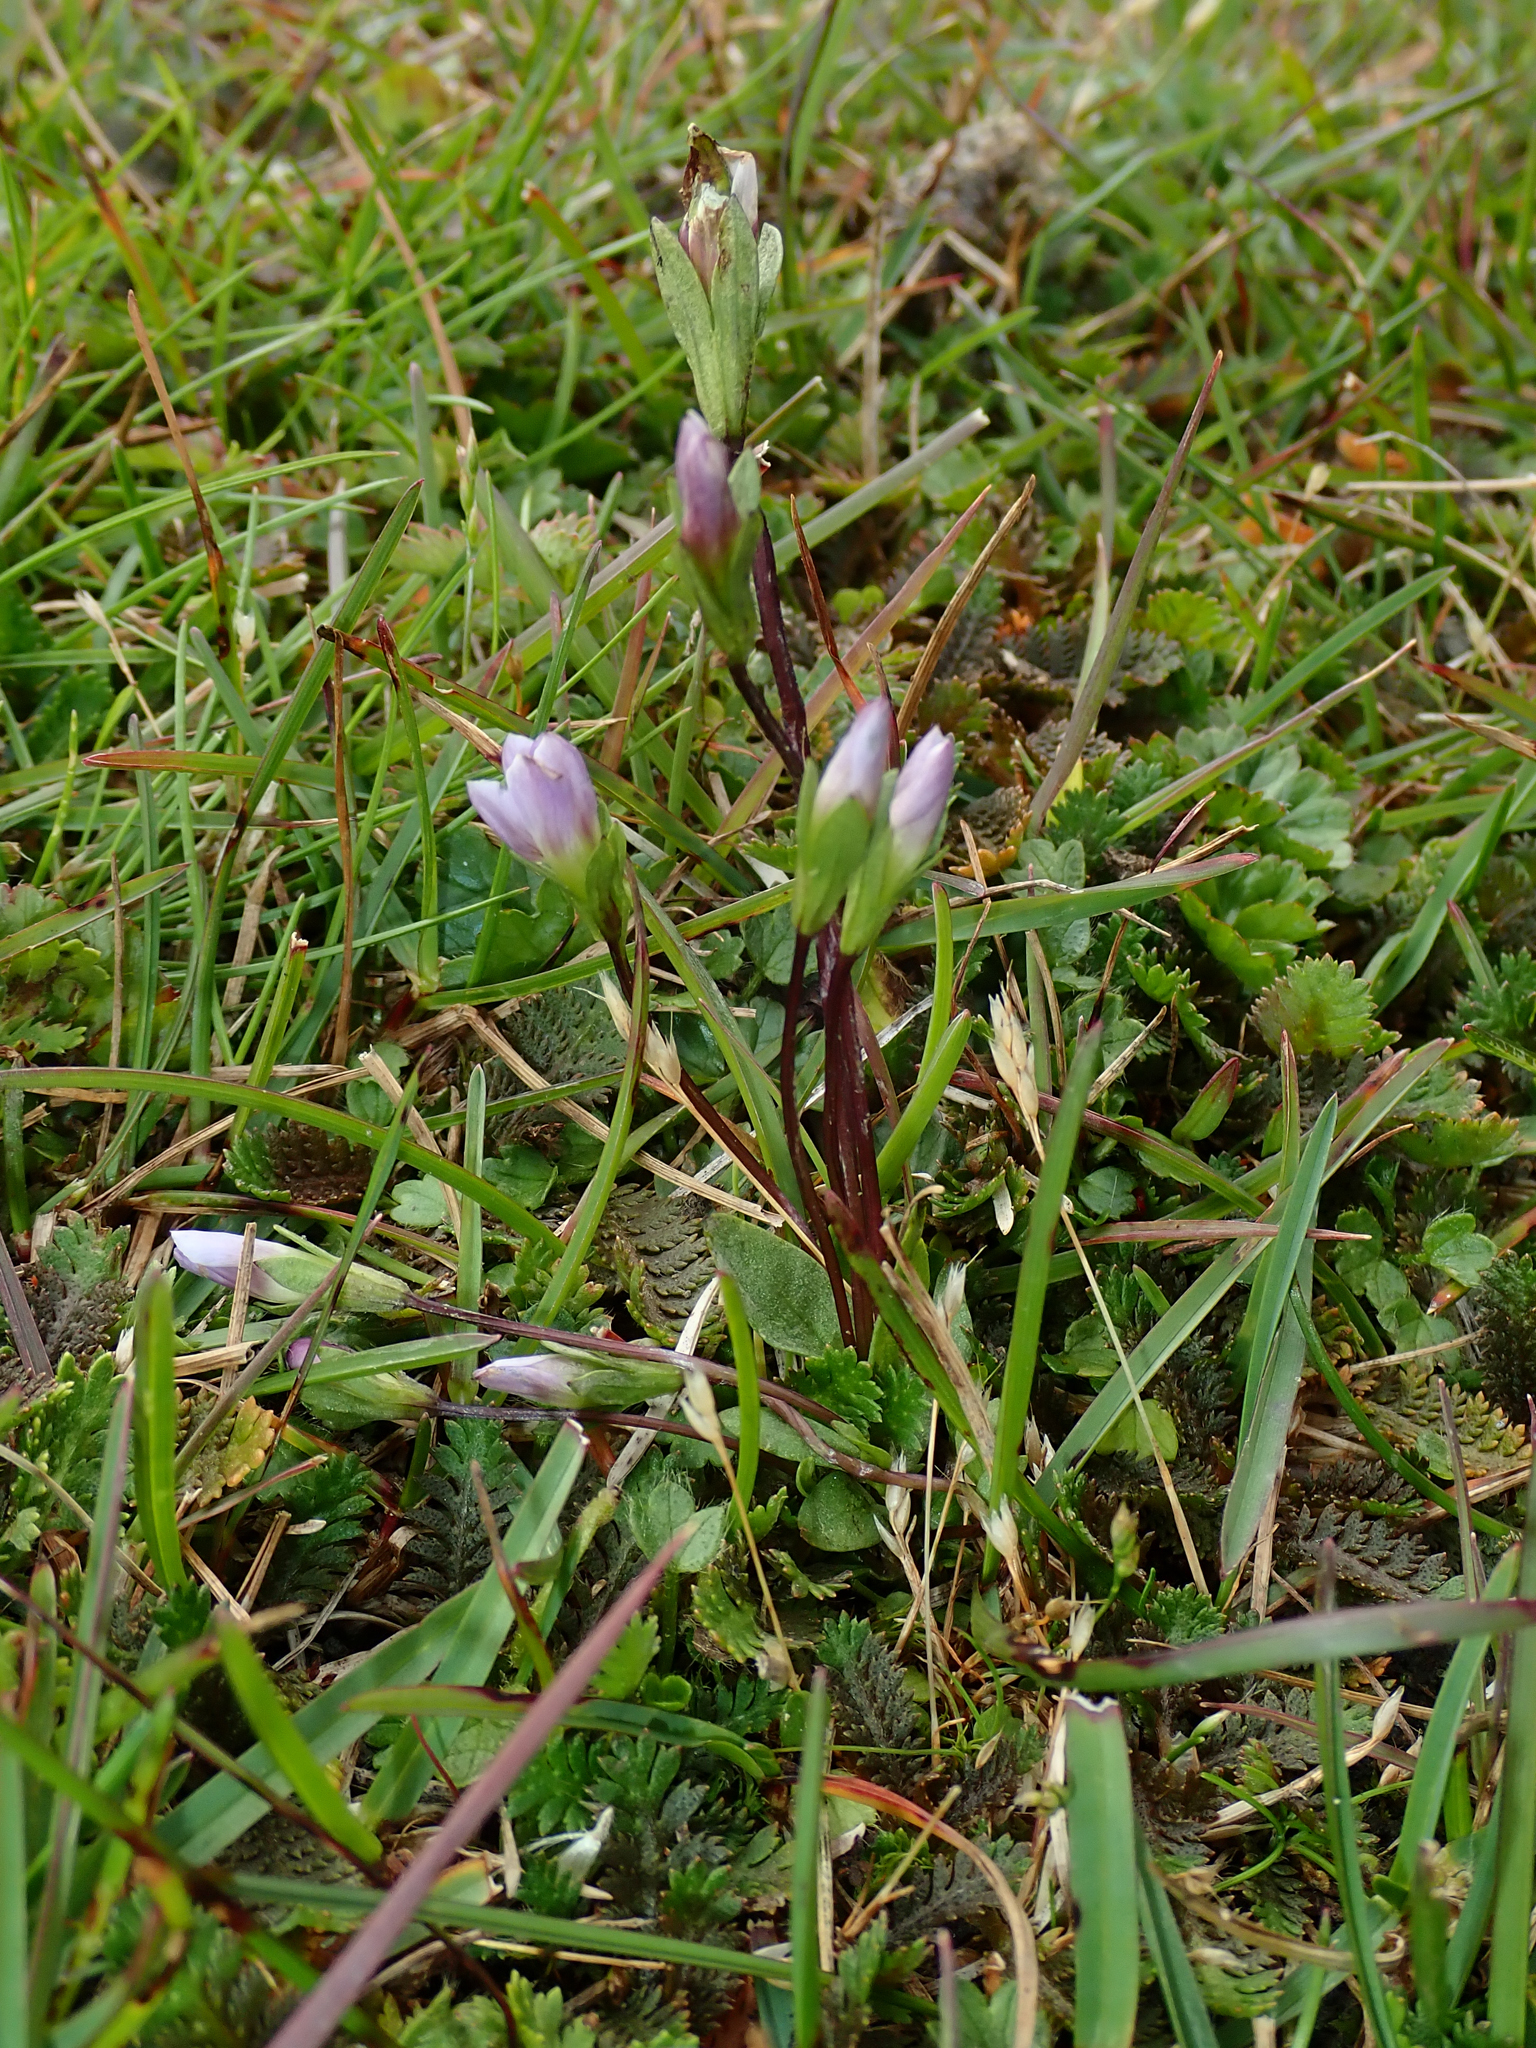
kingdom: Plantae
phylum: Tracheophyta
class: Magnoliopsida
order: Gentianales
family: Gentianaceae
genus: Gentianella
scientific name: Gentianella magellanica
